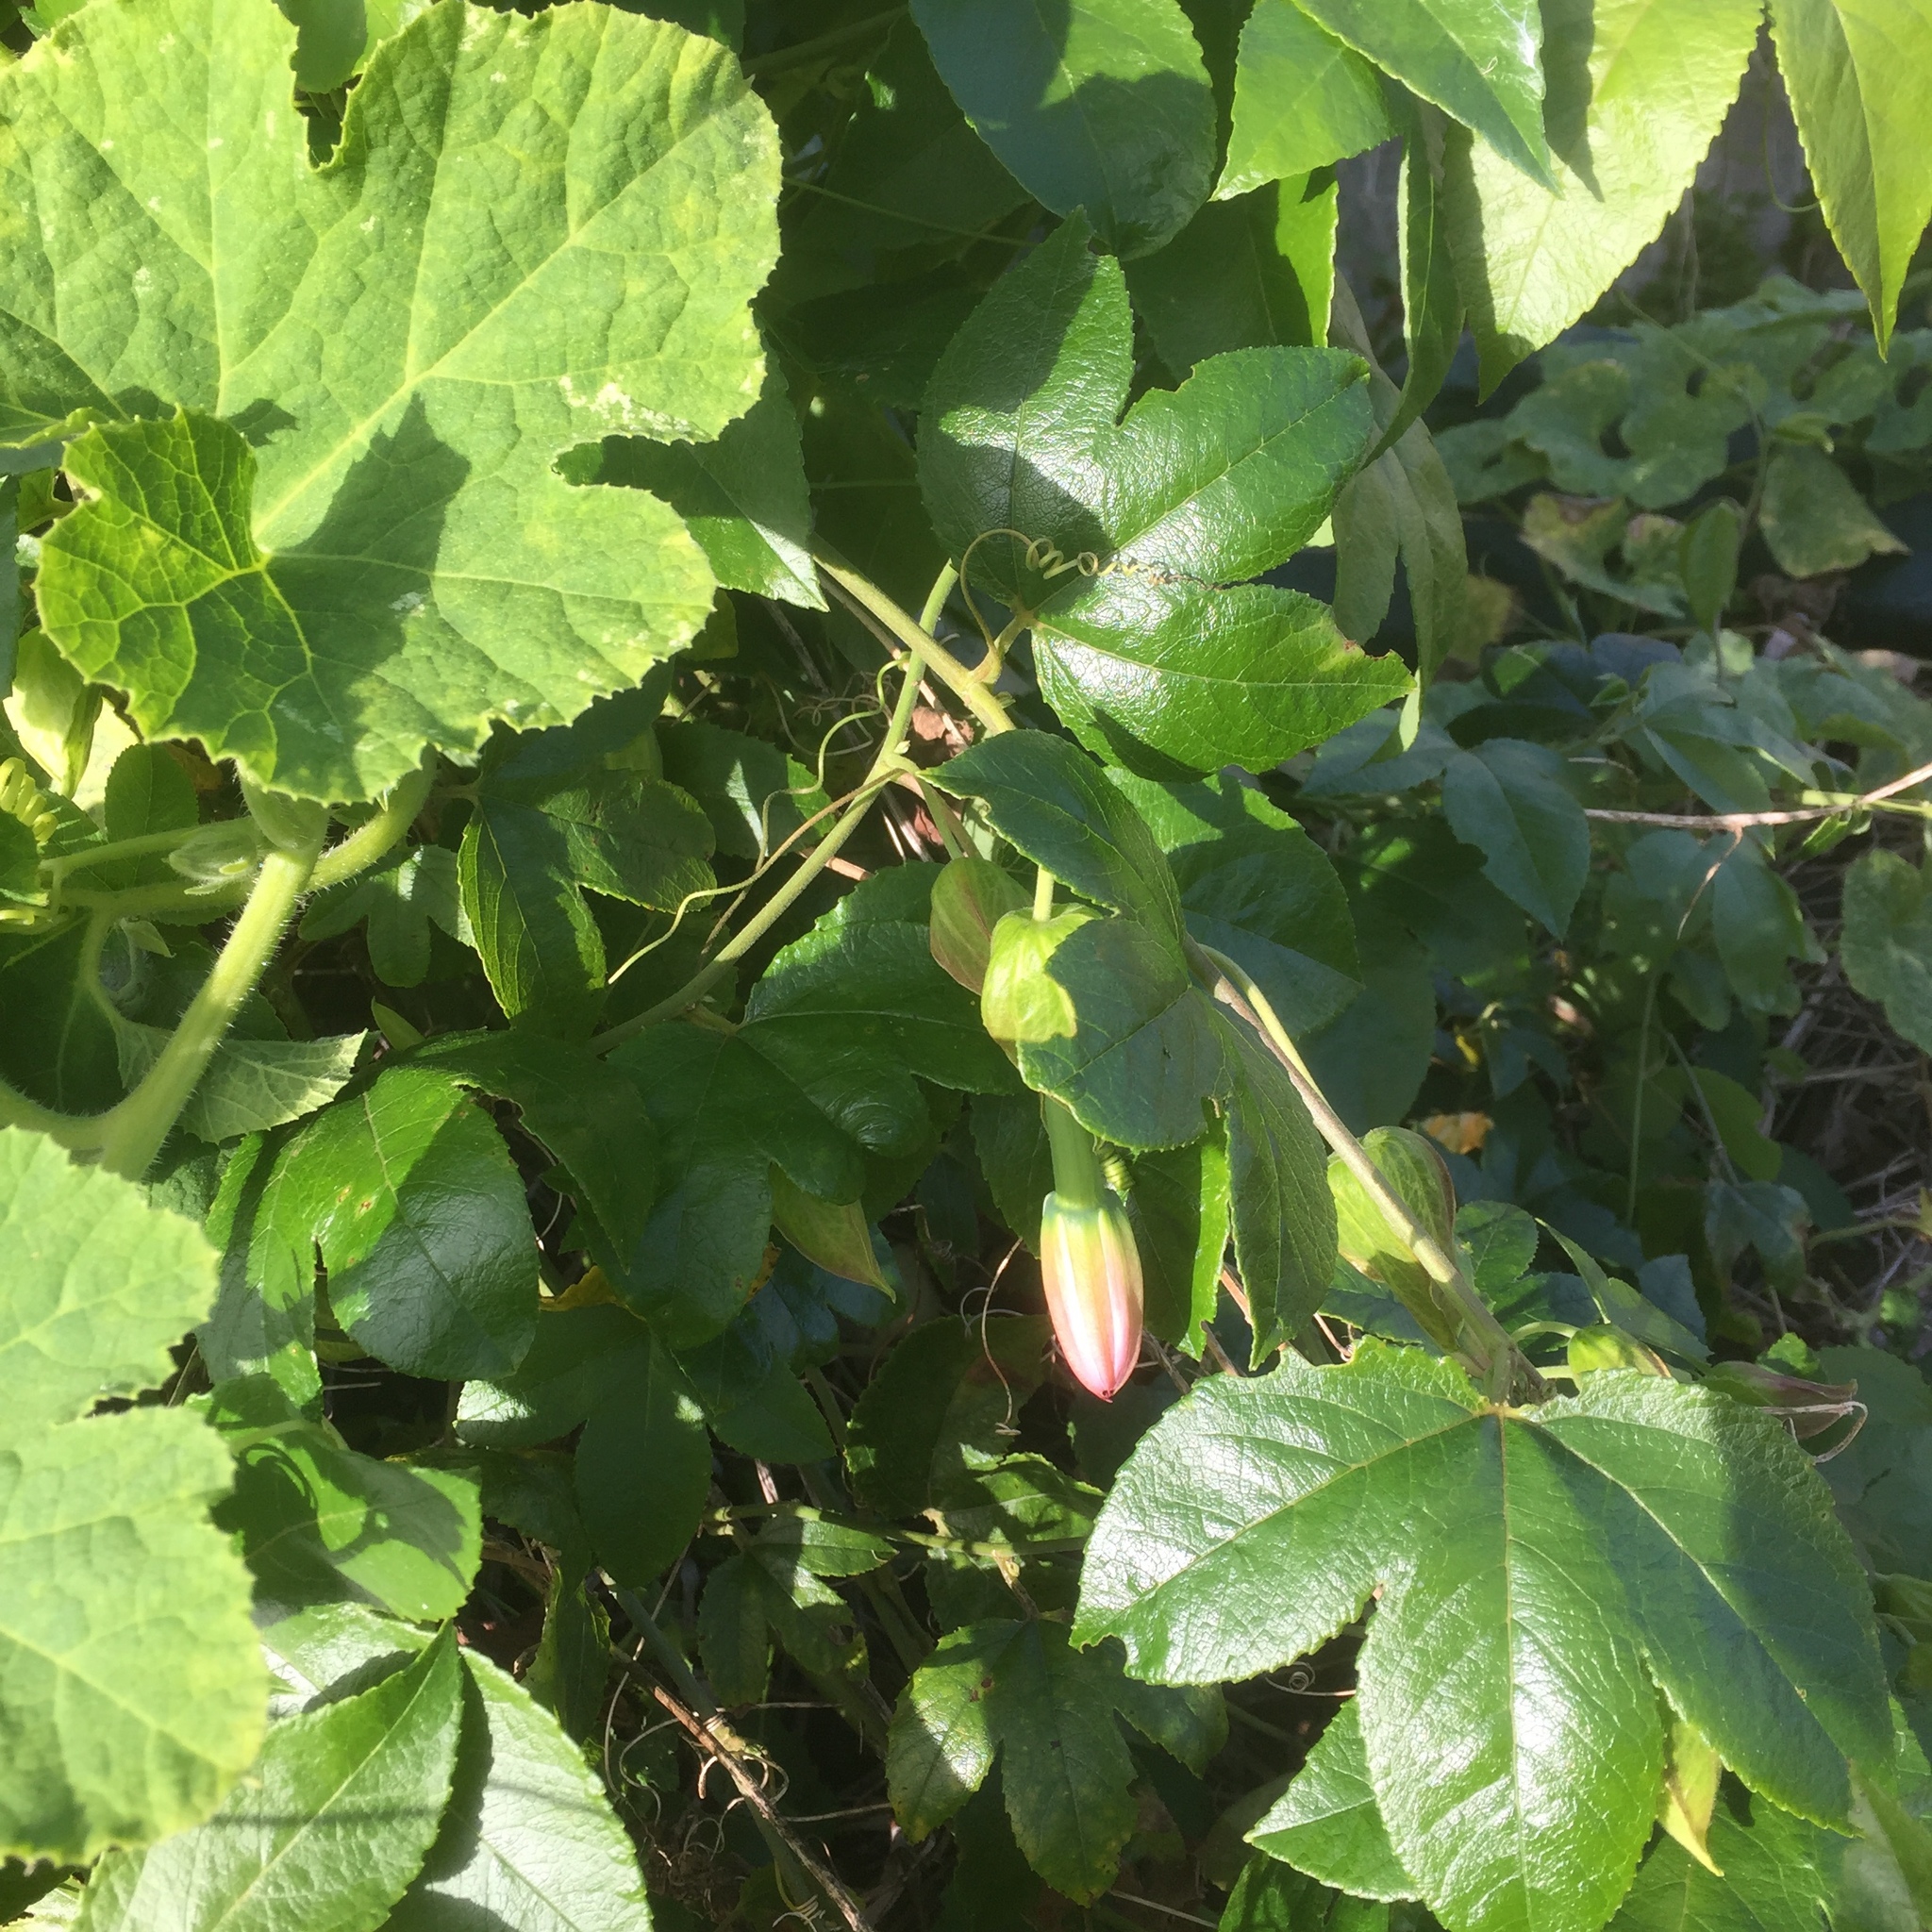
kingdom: Plantae
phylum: Tracheophyta
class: Magnoliopsida
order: Malpighiales
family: Passifloraceae
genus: Passiflora
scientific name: Passiflora tarminiana
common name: Banana poka
